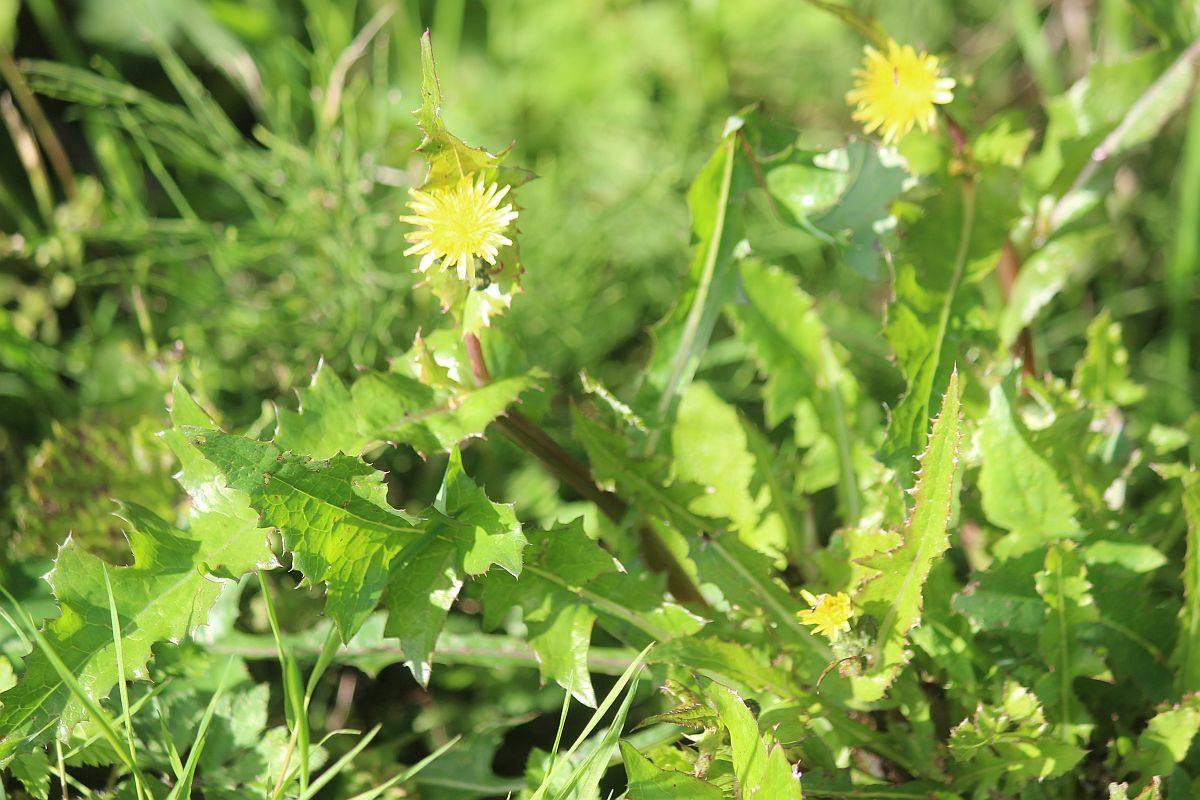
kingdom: Plantae
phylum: Tracheophyta
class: Magnoliopsida
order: Asterales
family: Asteraceae
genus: Sonchus
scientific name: Sonchus oleraceus
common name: Common sowthistle
